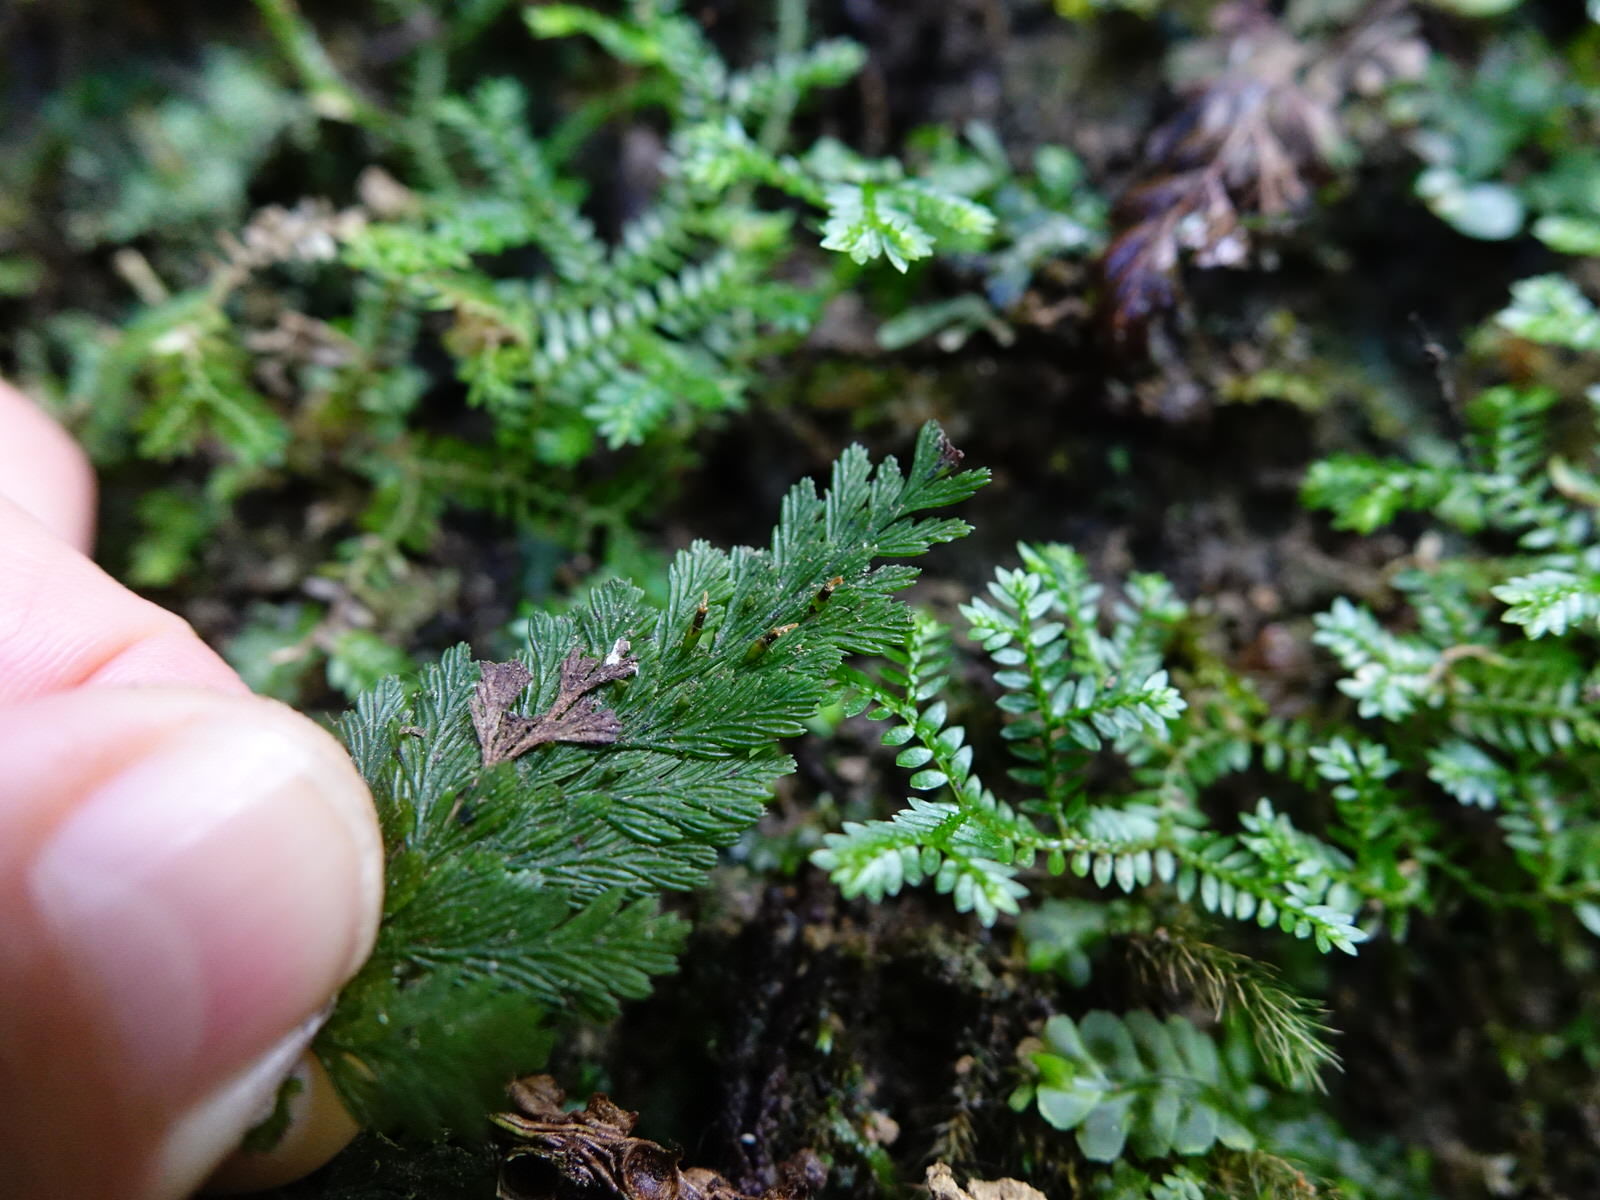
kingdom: Plantae
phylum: Tracheophyta
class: Polypodiopsida
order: Hymenophyllales
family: Hymenophyllaceae
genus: Abrodictyum
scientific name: Abrodictyum elongatum
